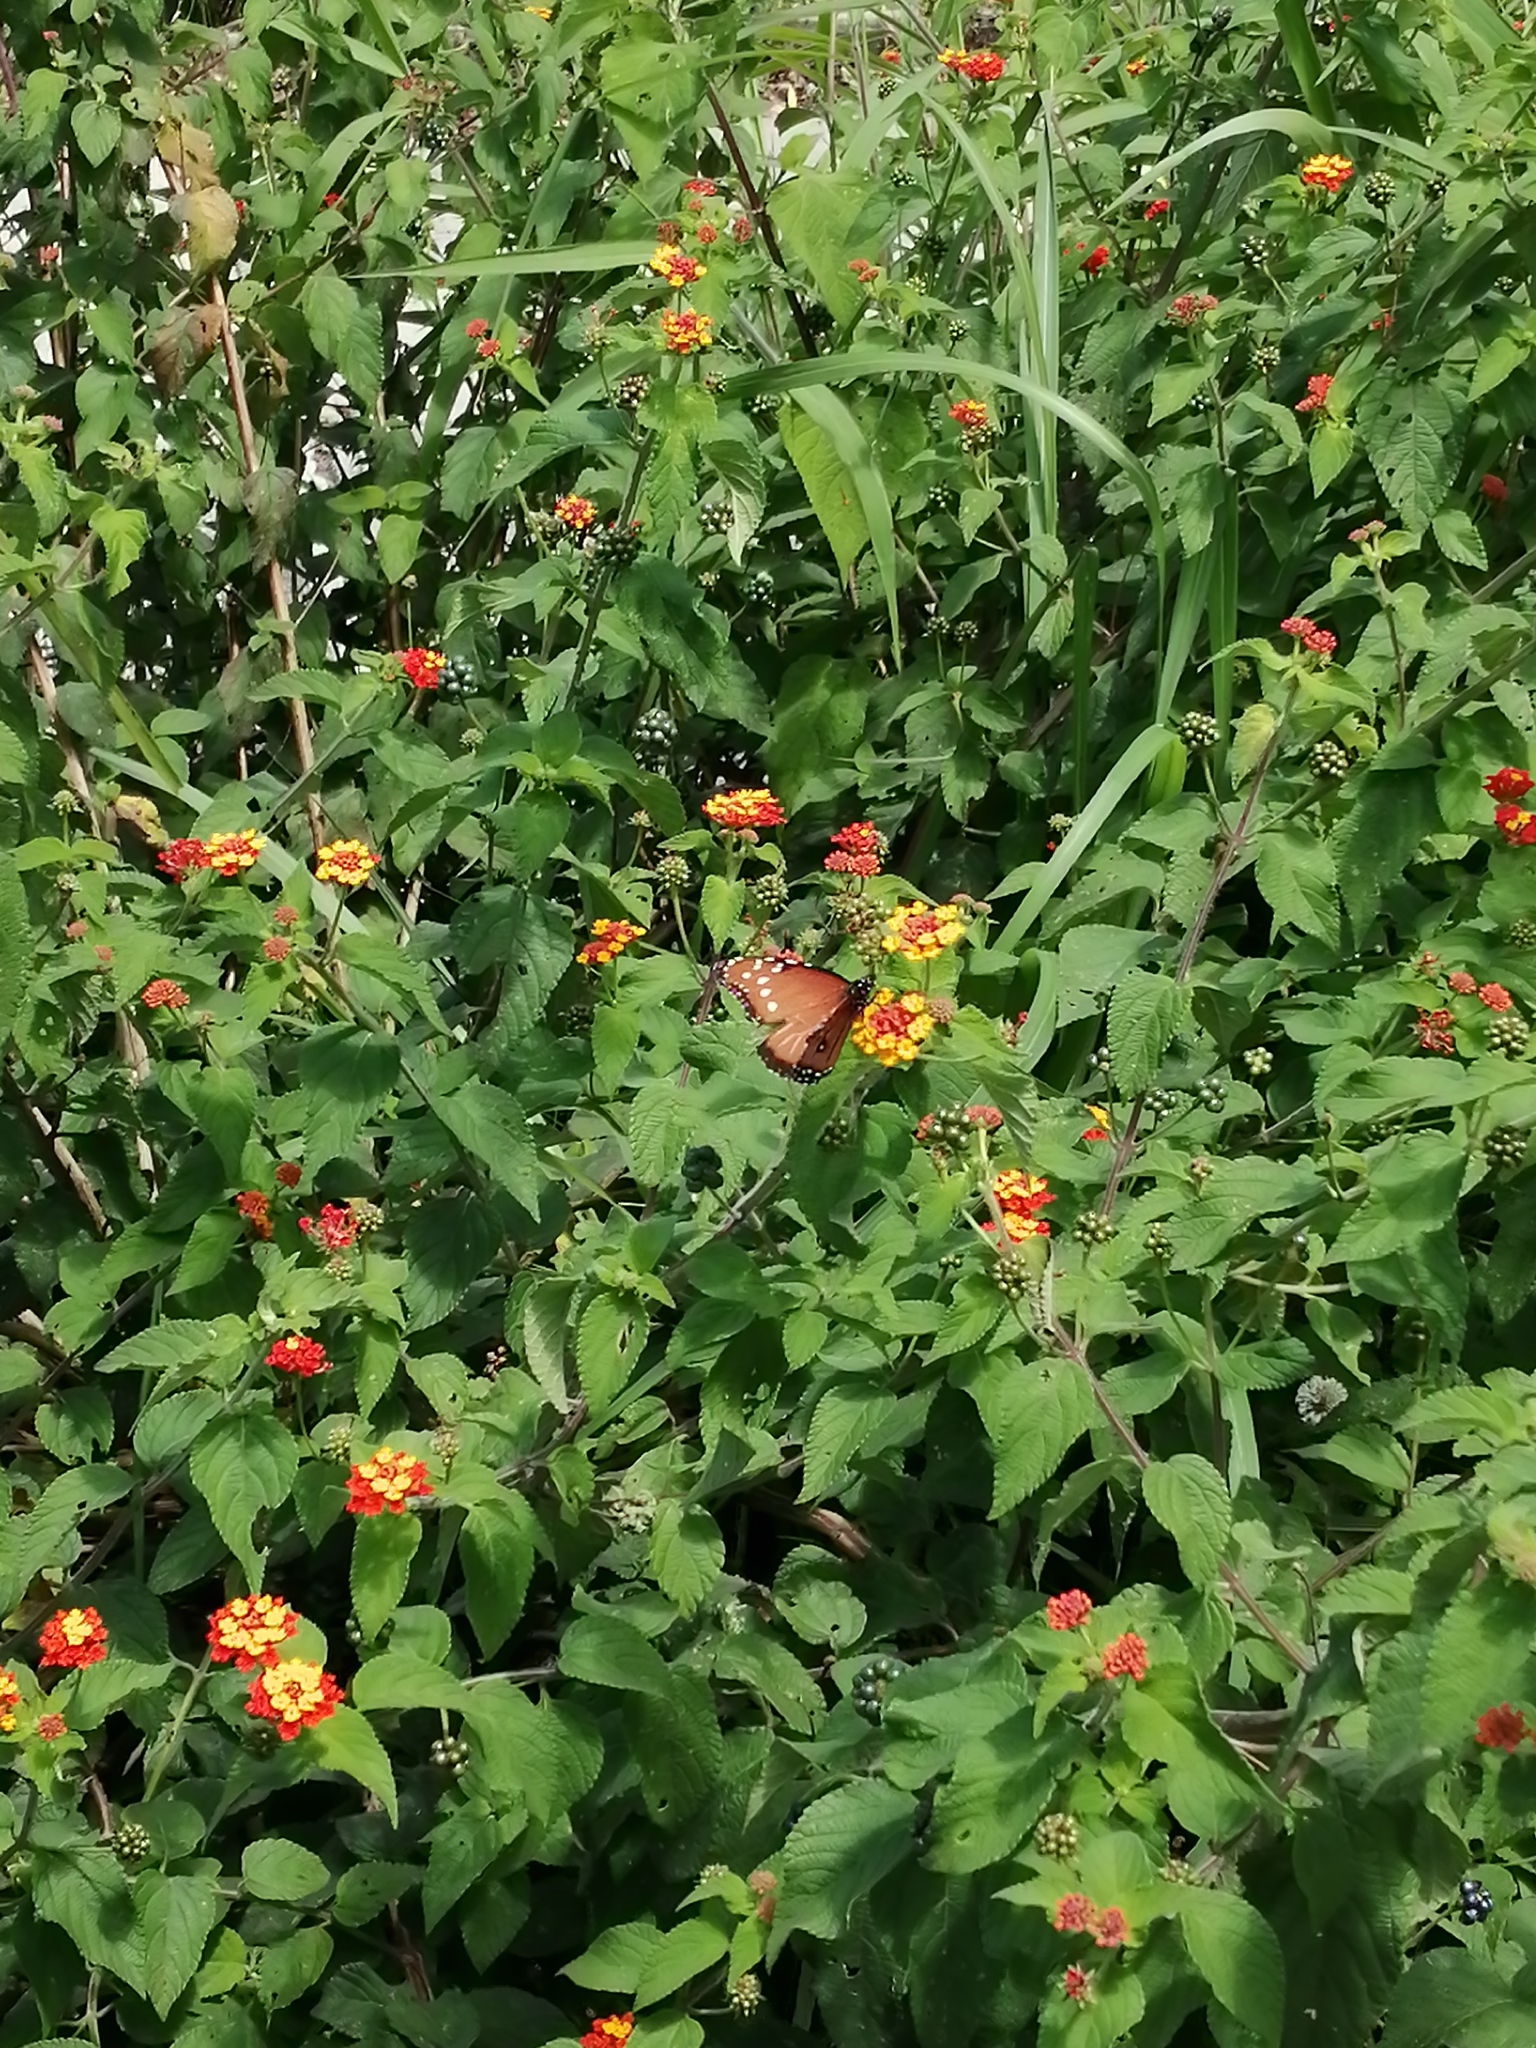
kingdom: Animalia
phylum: Arthropoda
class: Insecta
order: Lepidoptera
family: Nymphalidae
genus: Danaus
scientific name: Danaus gilippus
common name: Queen
